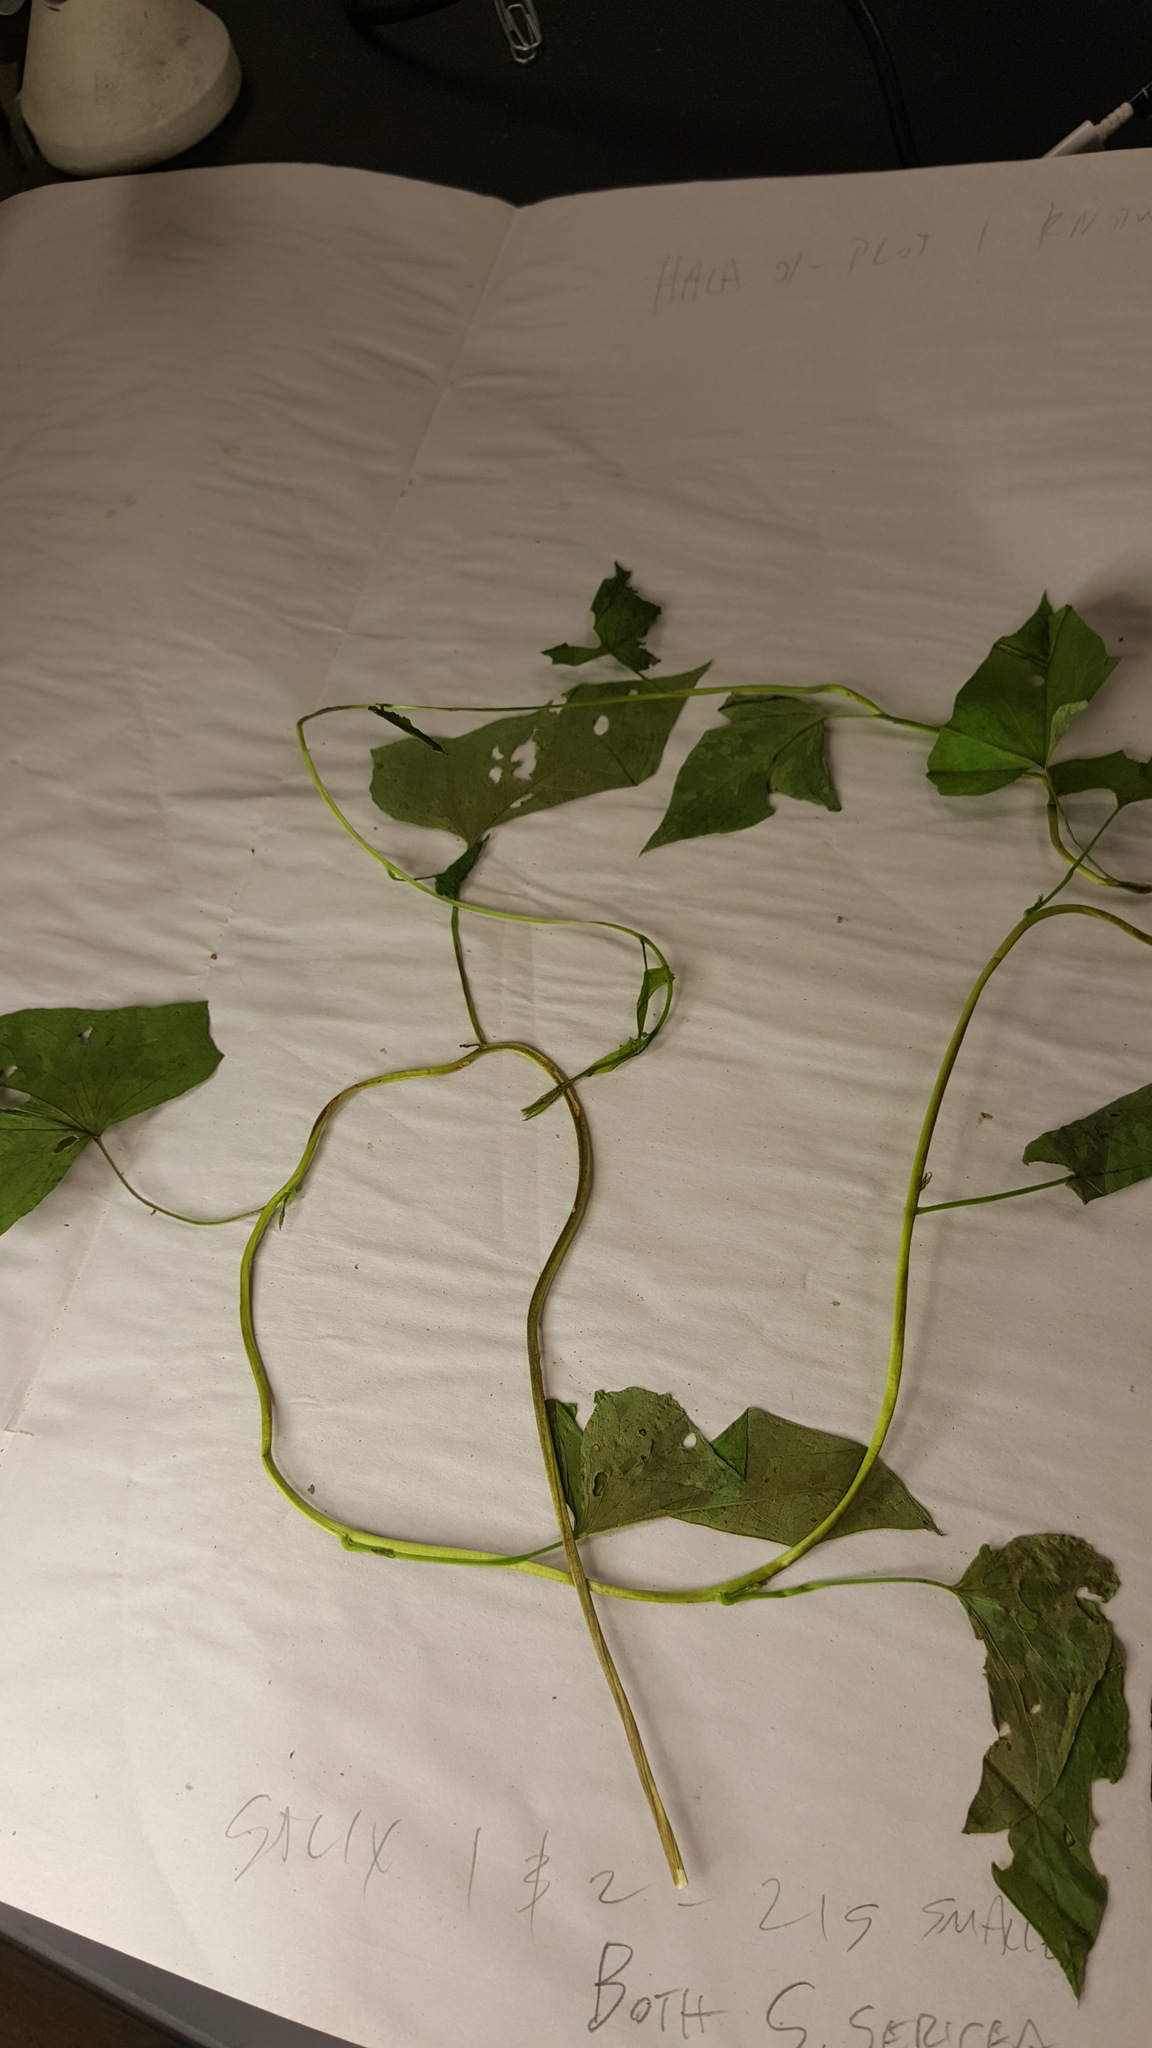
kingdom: Plantae
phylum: Tracheophyta
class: Magnoliopsida
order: Solanales
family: Convolvulaceae
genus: Calystegia
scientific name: Calystegia sepium
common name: Hedge bindweed
